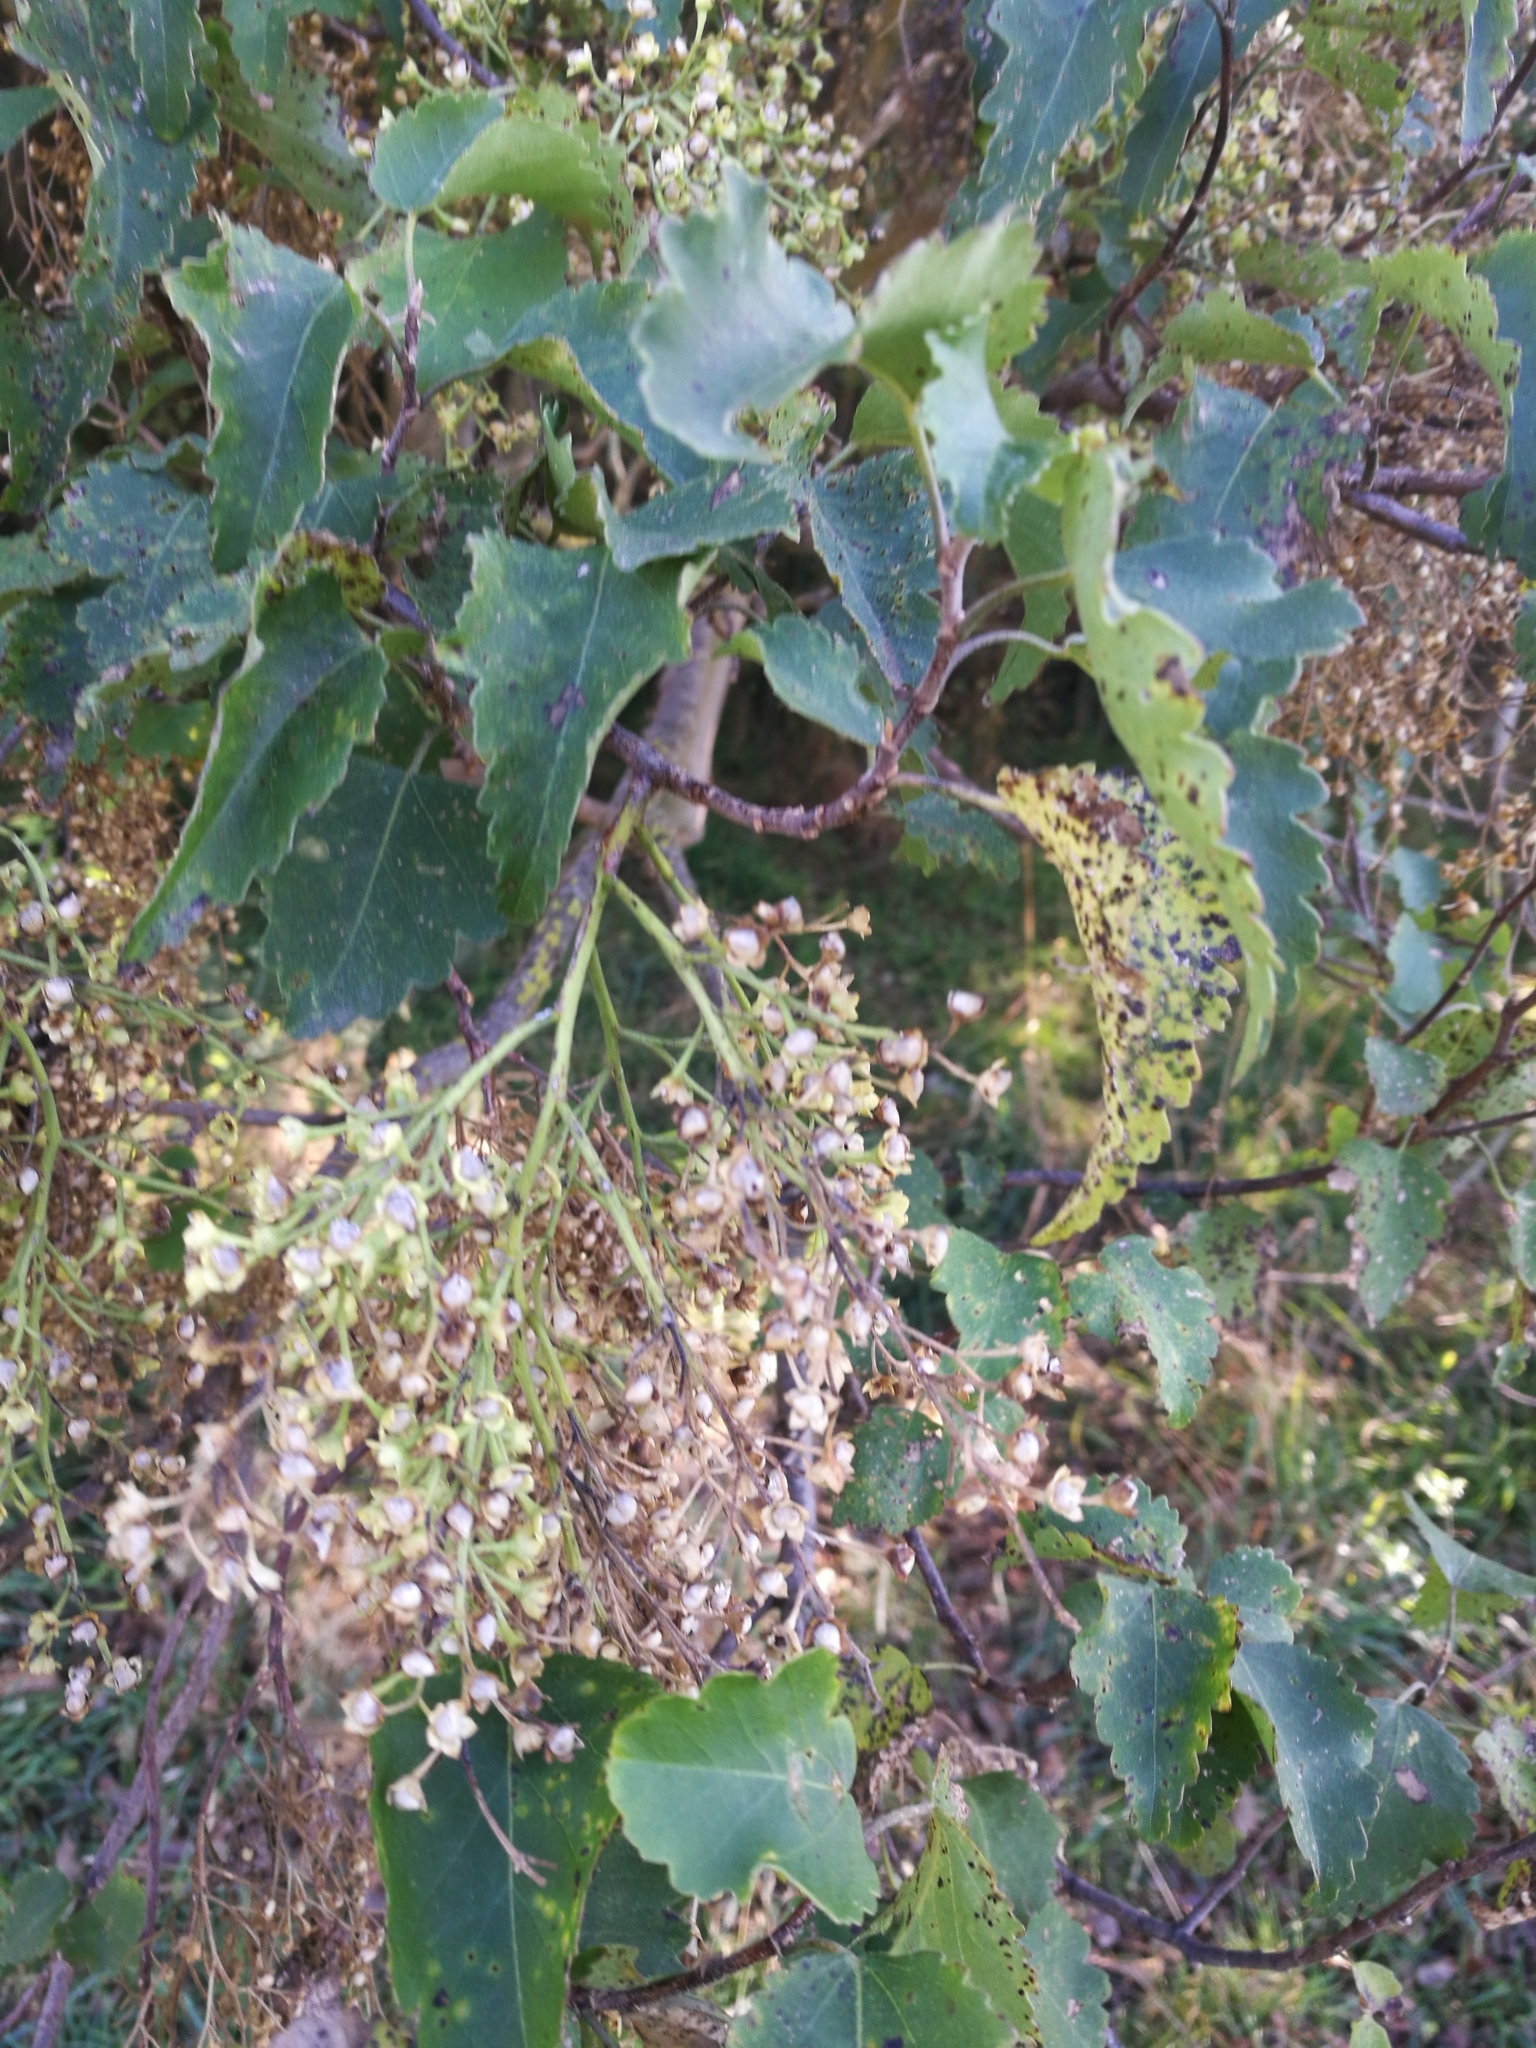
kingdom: Plantae
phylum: Tracheophyta
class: Magnoliopsida
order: Malvales
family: Malvaceae
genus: Plagianthus
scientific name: Plagianthus regius
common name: Manatu
